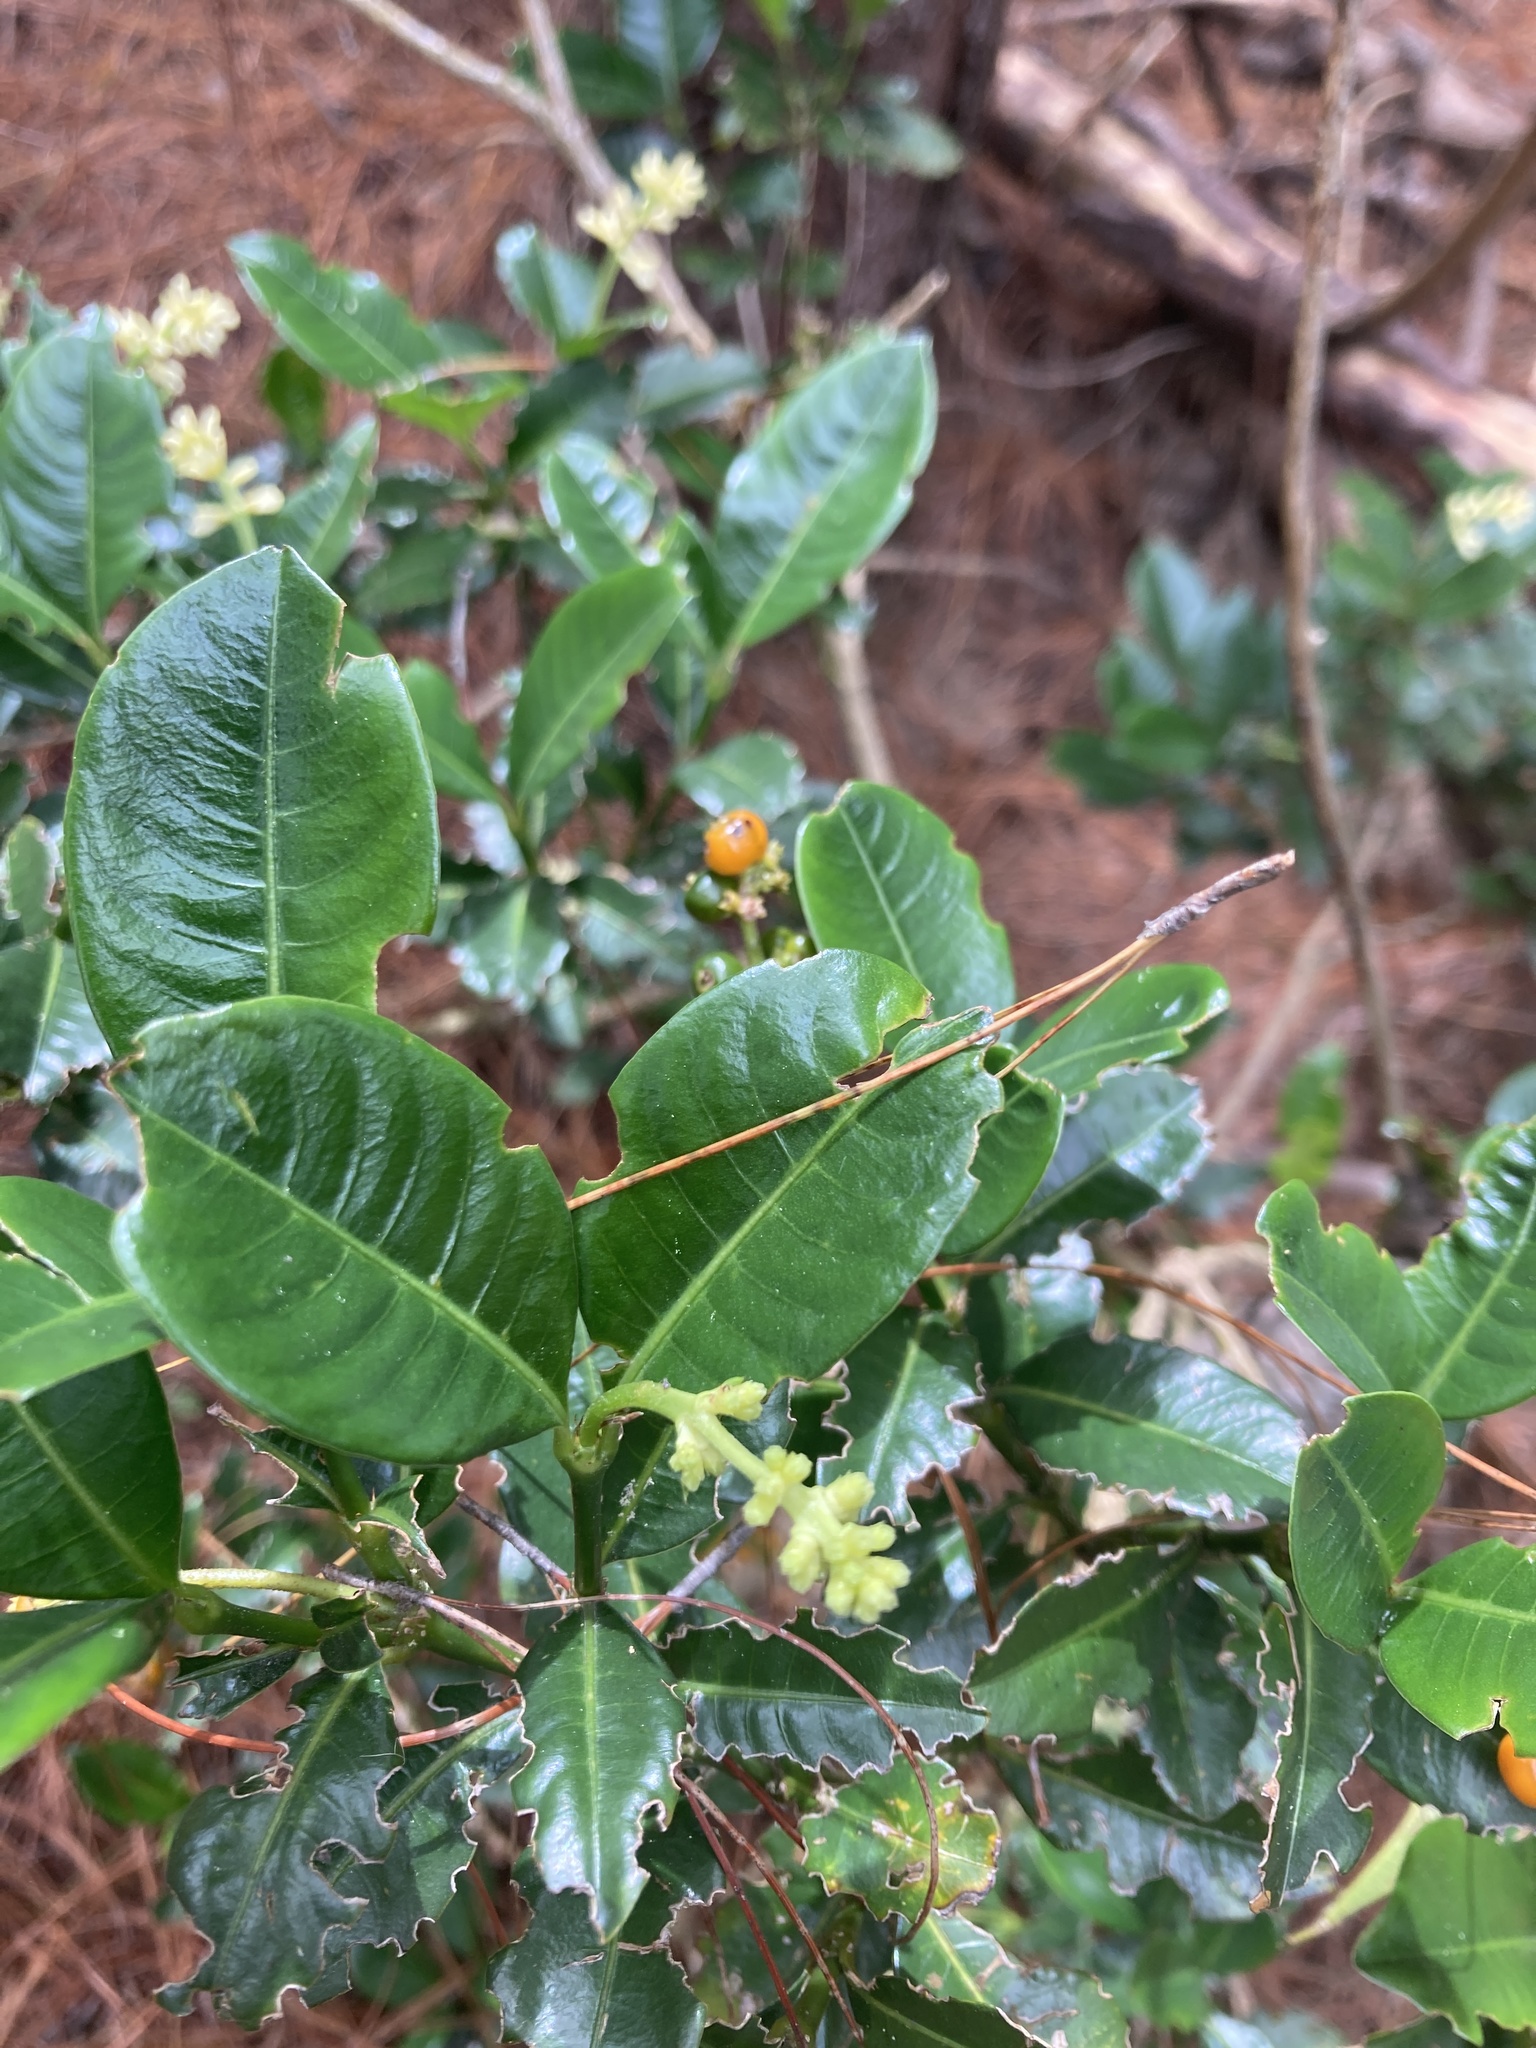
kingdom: Plantae
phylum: Tracheophyta
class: Magnoliopsida
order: Gentianales
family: Rubiaceae
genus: Palicourea
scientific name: Palicourea boqueronensis
